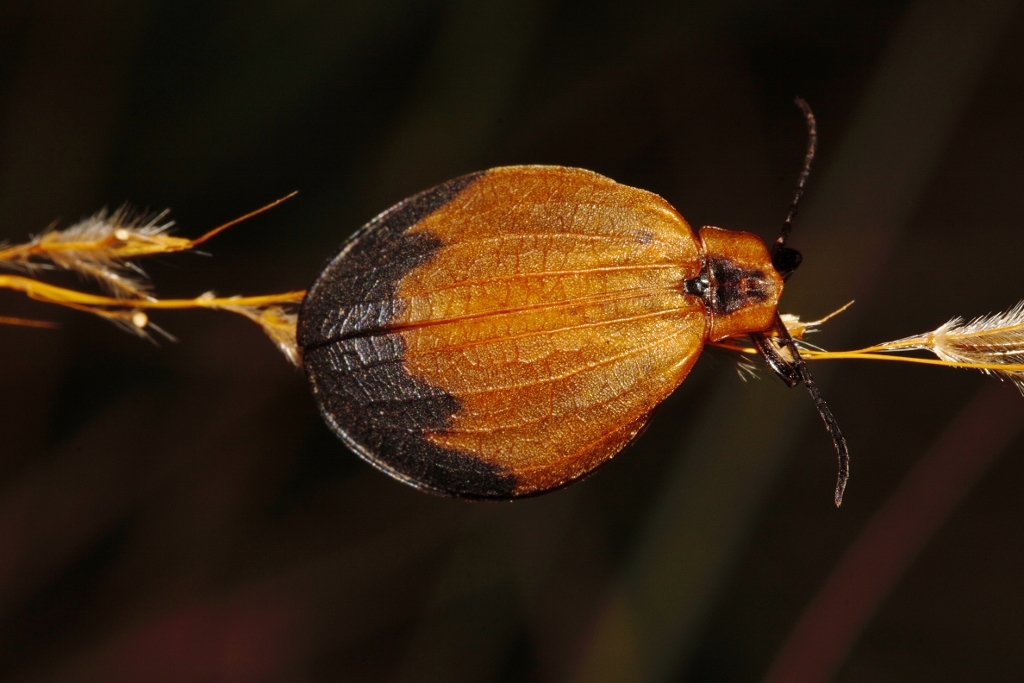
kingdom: Animalia
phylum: Arthropoda
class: Insecta
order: Coleoptera
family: Lycidae
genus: Lycus
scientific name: Lycus
